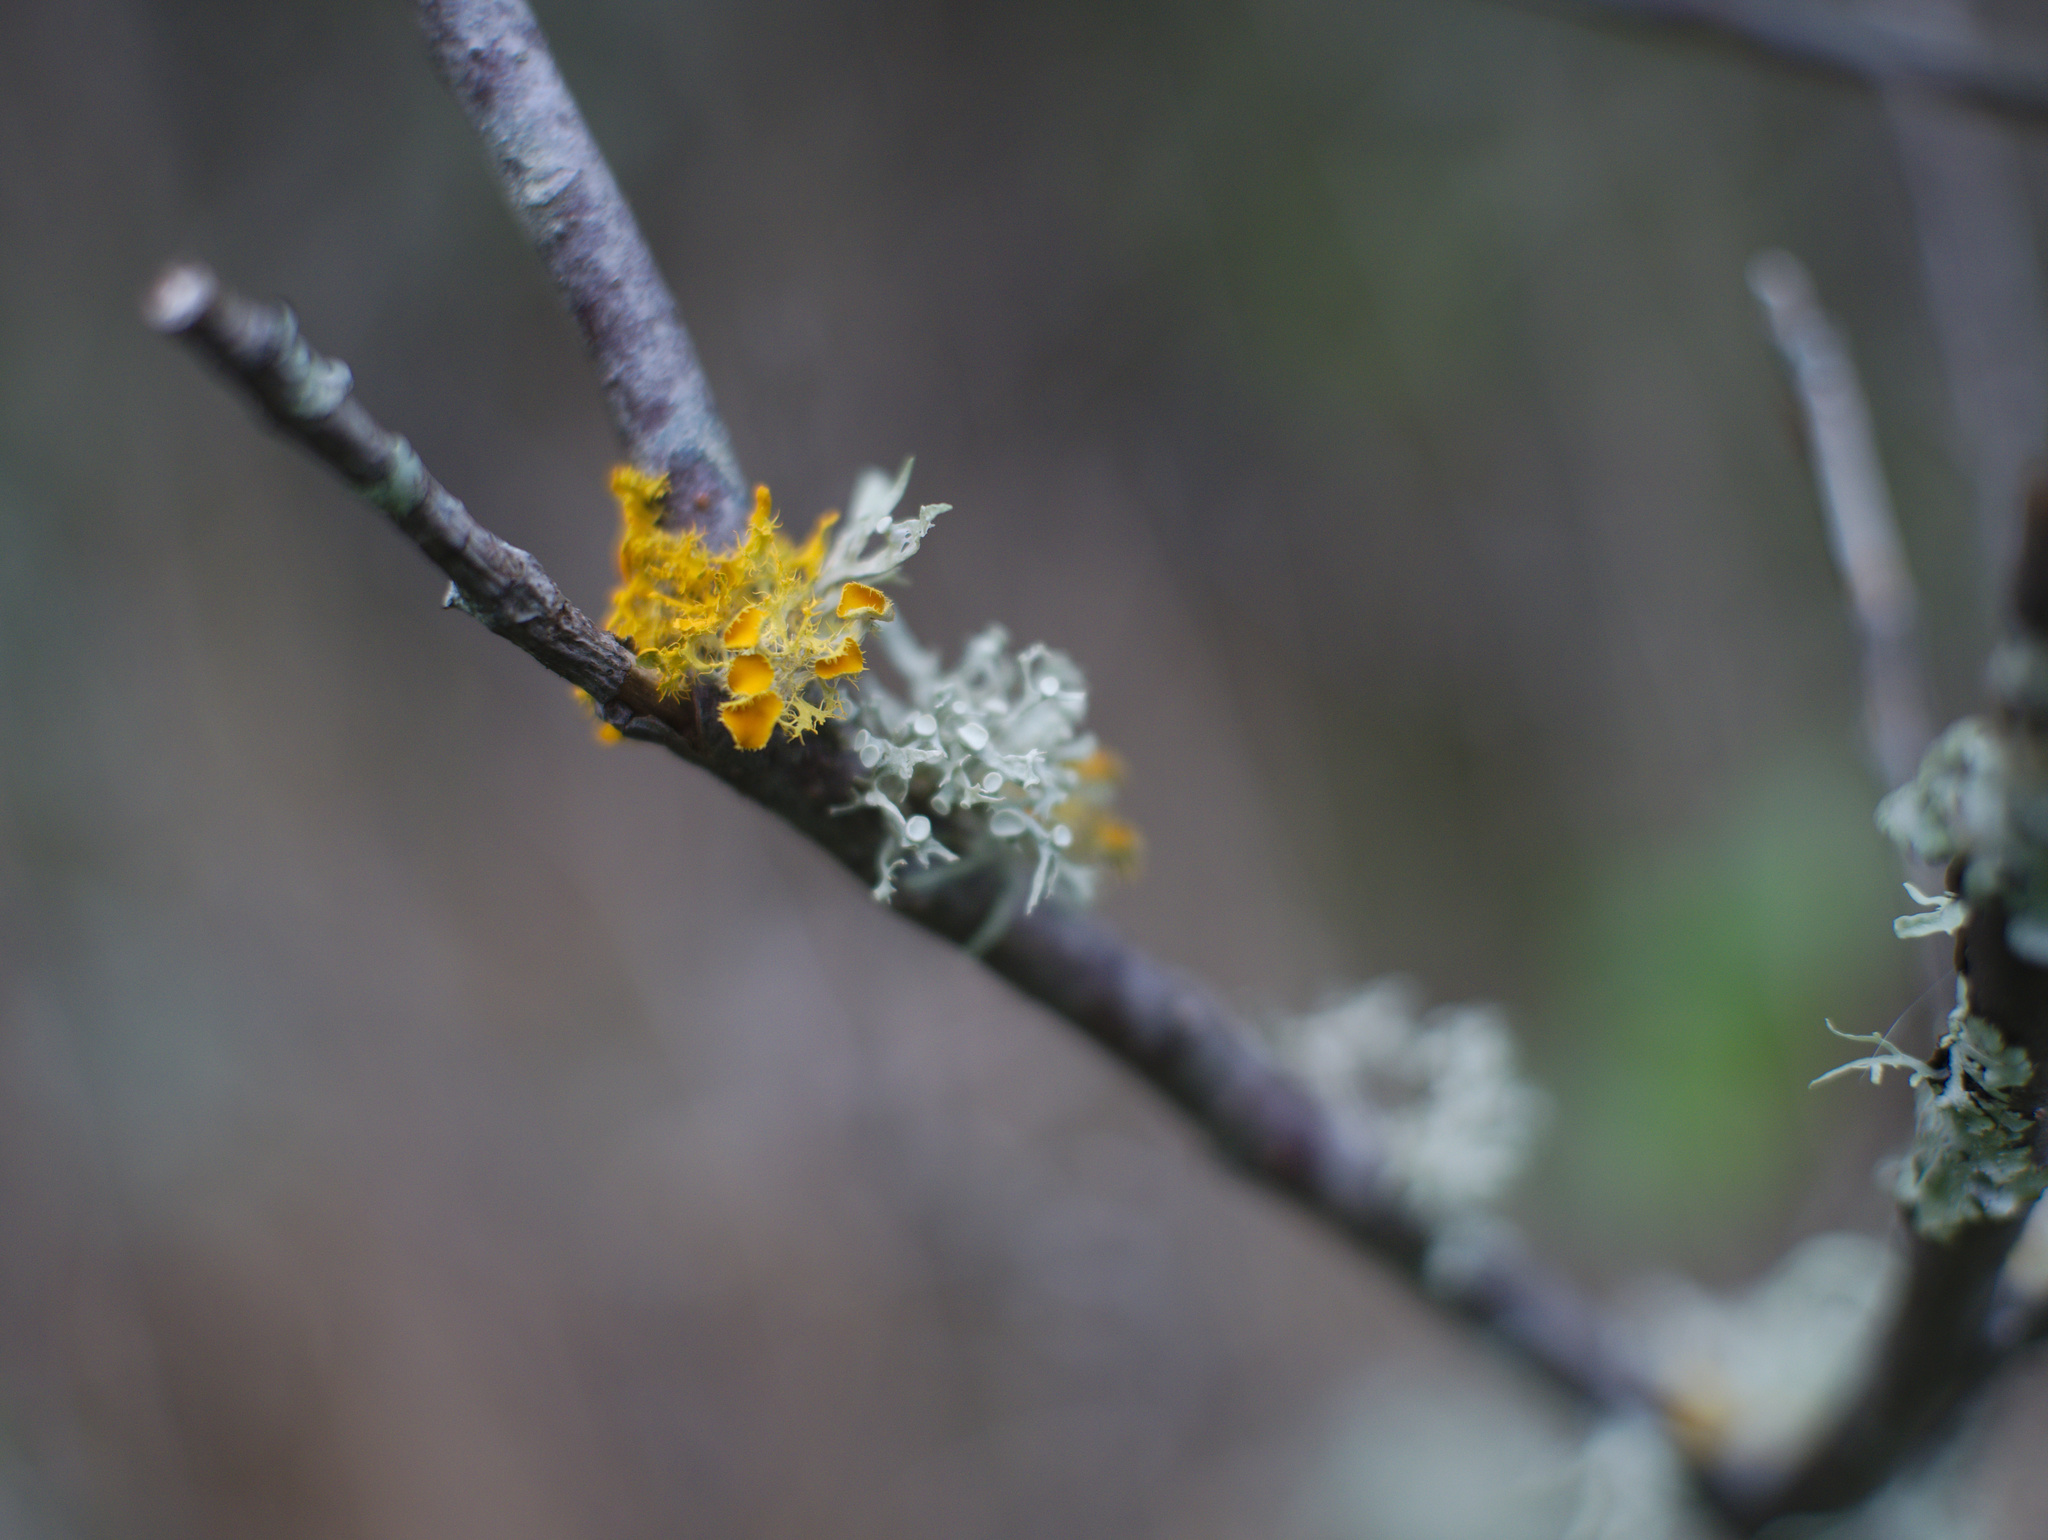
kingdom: Fungi
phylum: Ascomycota
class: Lecanoromycetes
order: Teloschistales
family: Teloschistaceae
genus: Niorma
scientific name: Niorma chrysophthalma
